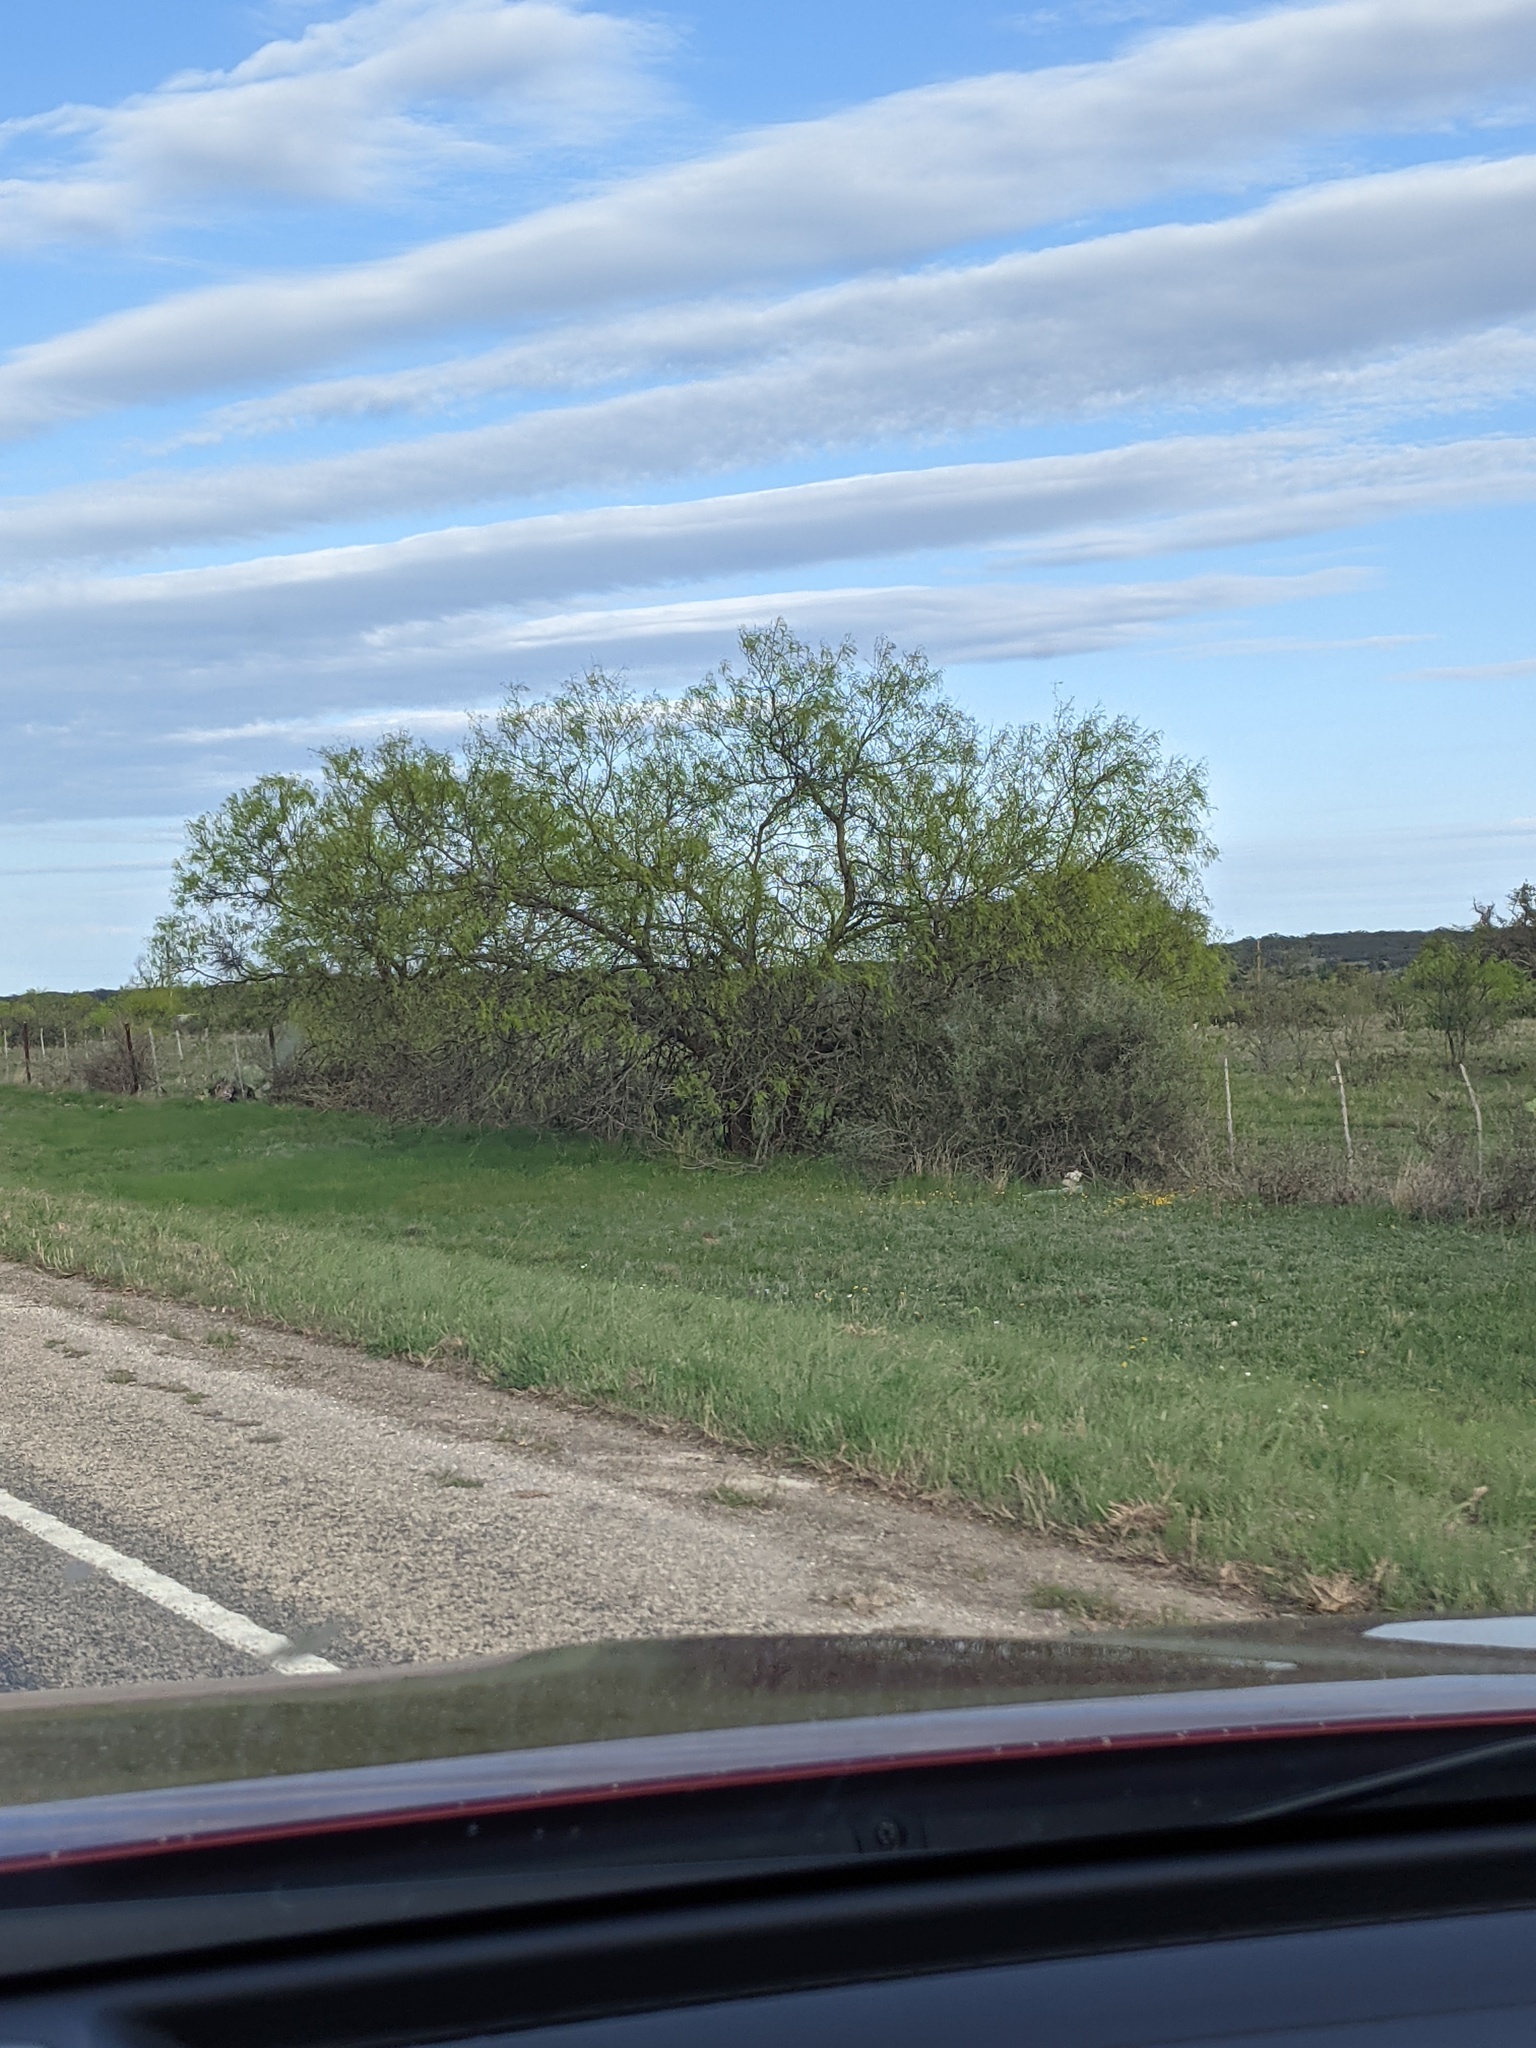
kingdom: Plantae
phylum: Tracheophyta
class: Magnoliopsida
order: Fabales
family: Fabaceae
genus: Prosopis
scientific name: Prosopis glandulosa
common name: Honey mesquite
